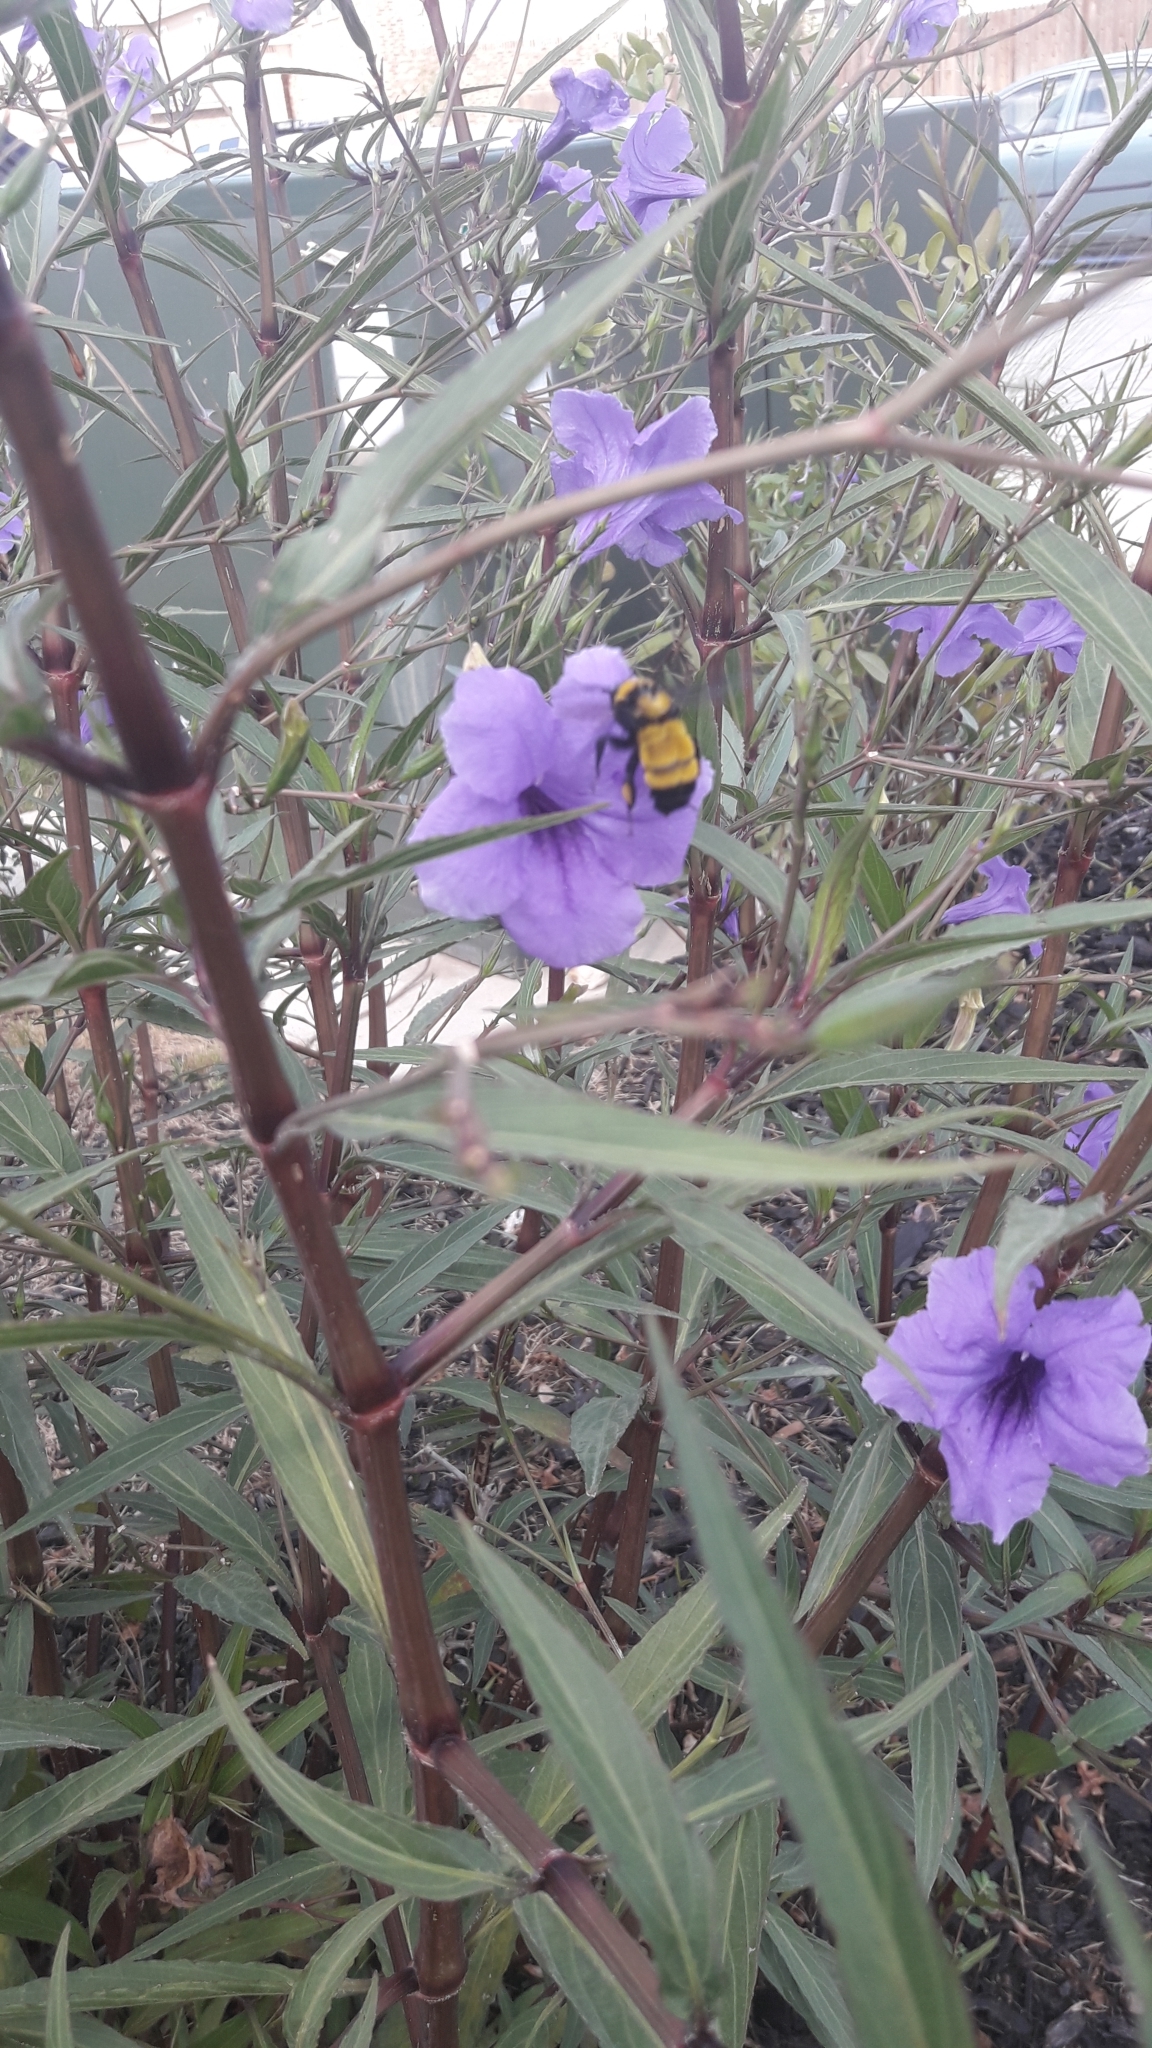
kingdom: Animalia
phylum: Arthropoda
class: Insecta
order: Hymenoptera
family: Apidae
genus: Bombus
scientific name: Bombus sonorus
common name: Sonoran bumble bee
